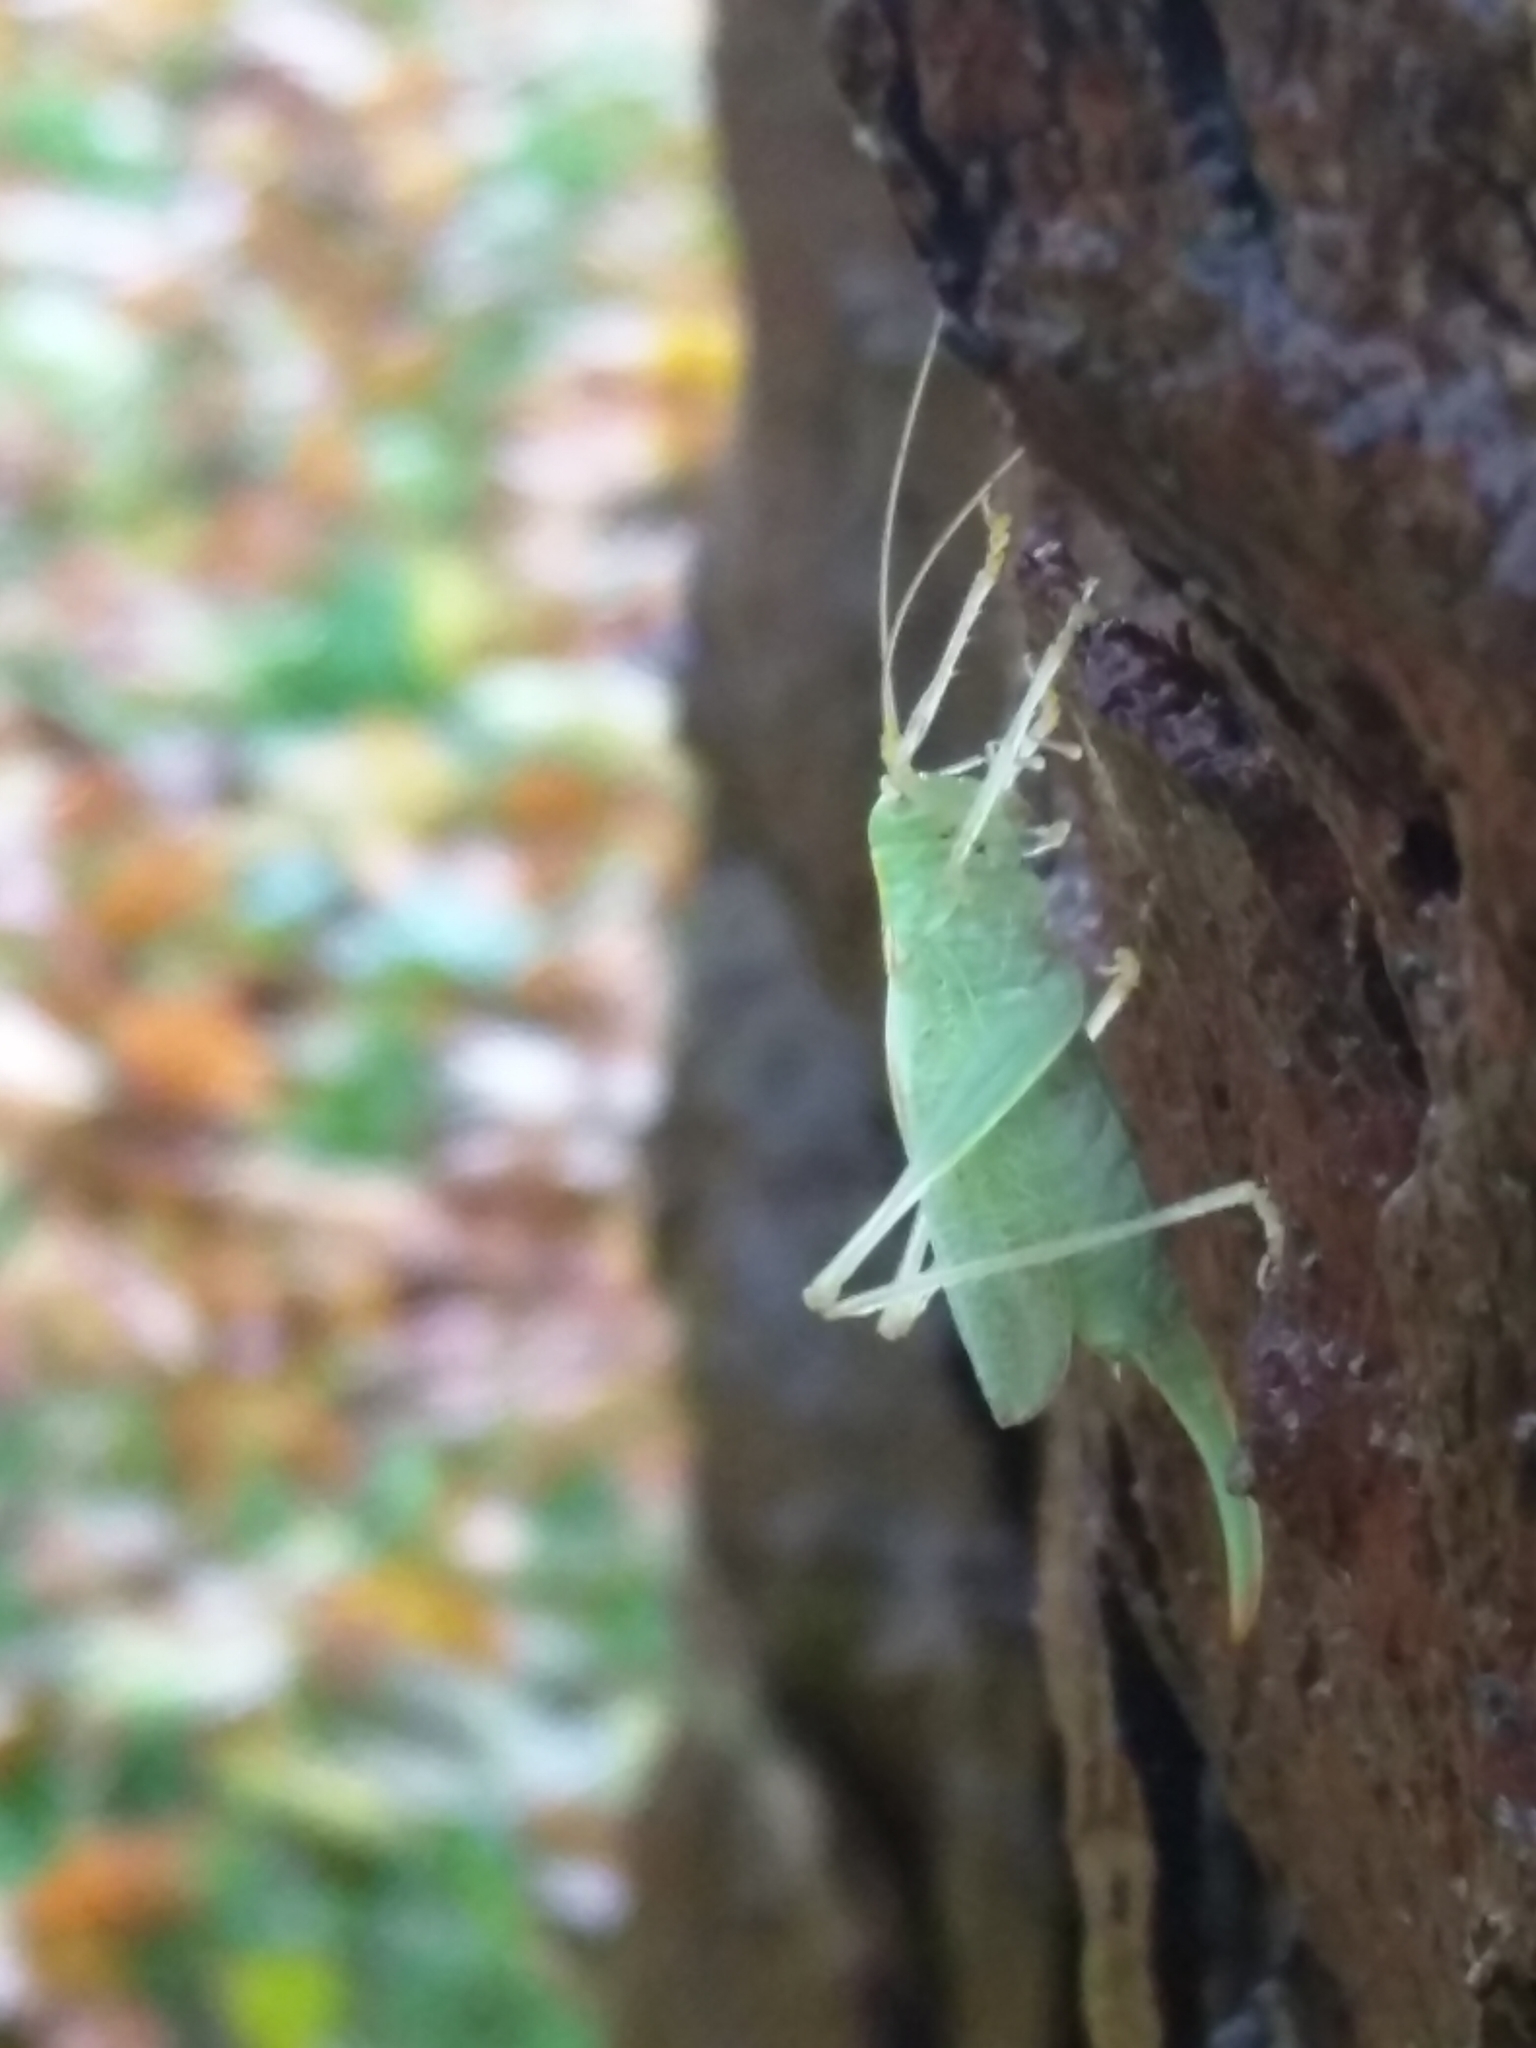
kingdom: Animalia
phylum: Arthropoda
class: Insecta
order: Orthoptera
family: Tettigoniidae
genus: Meconema
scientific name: Meconema thalassinum
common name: Oak bush-cricket
